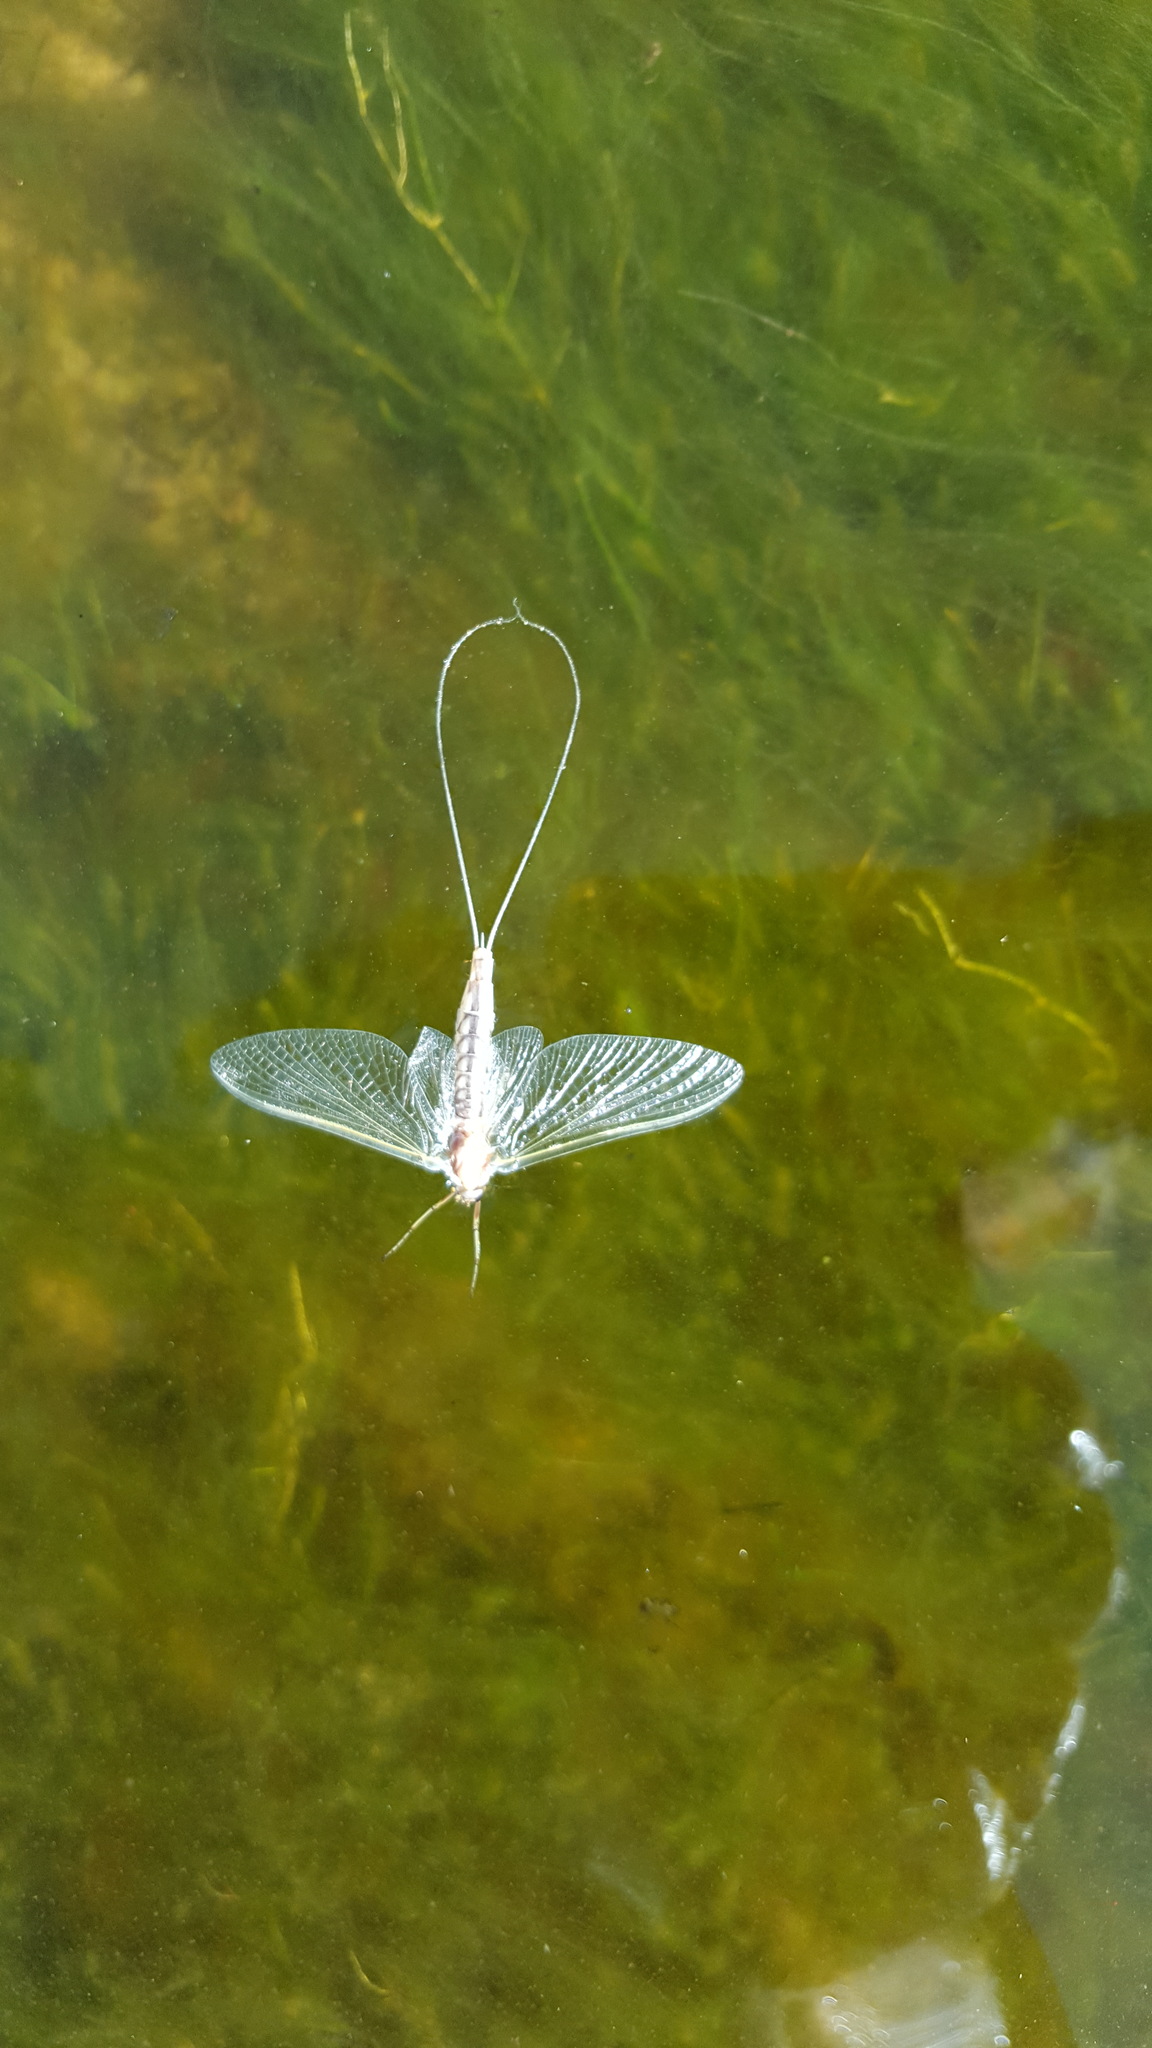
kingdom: Animalia
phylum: Arthropoda
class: Insecta
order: Ephemeroptera
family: Ephemeridae
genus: Hexagenia
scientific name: Hexagenia limbata
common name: Giant mayfly
